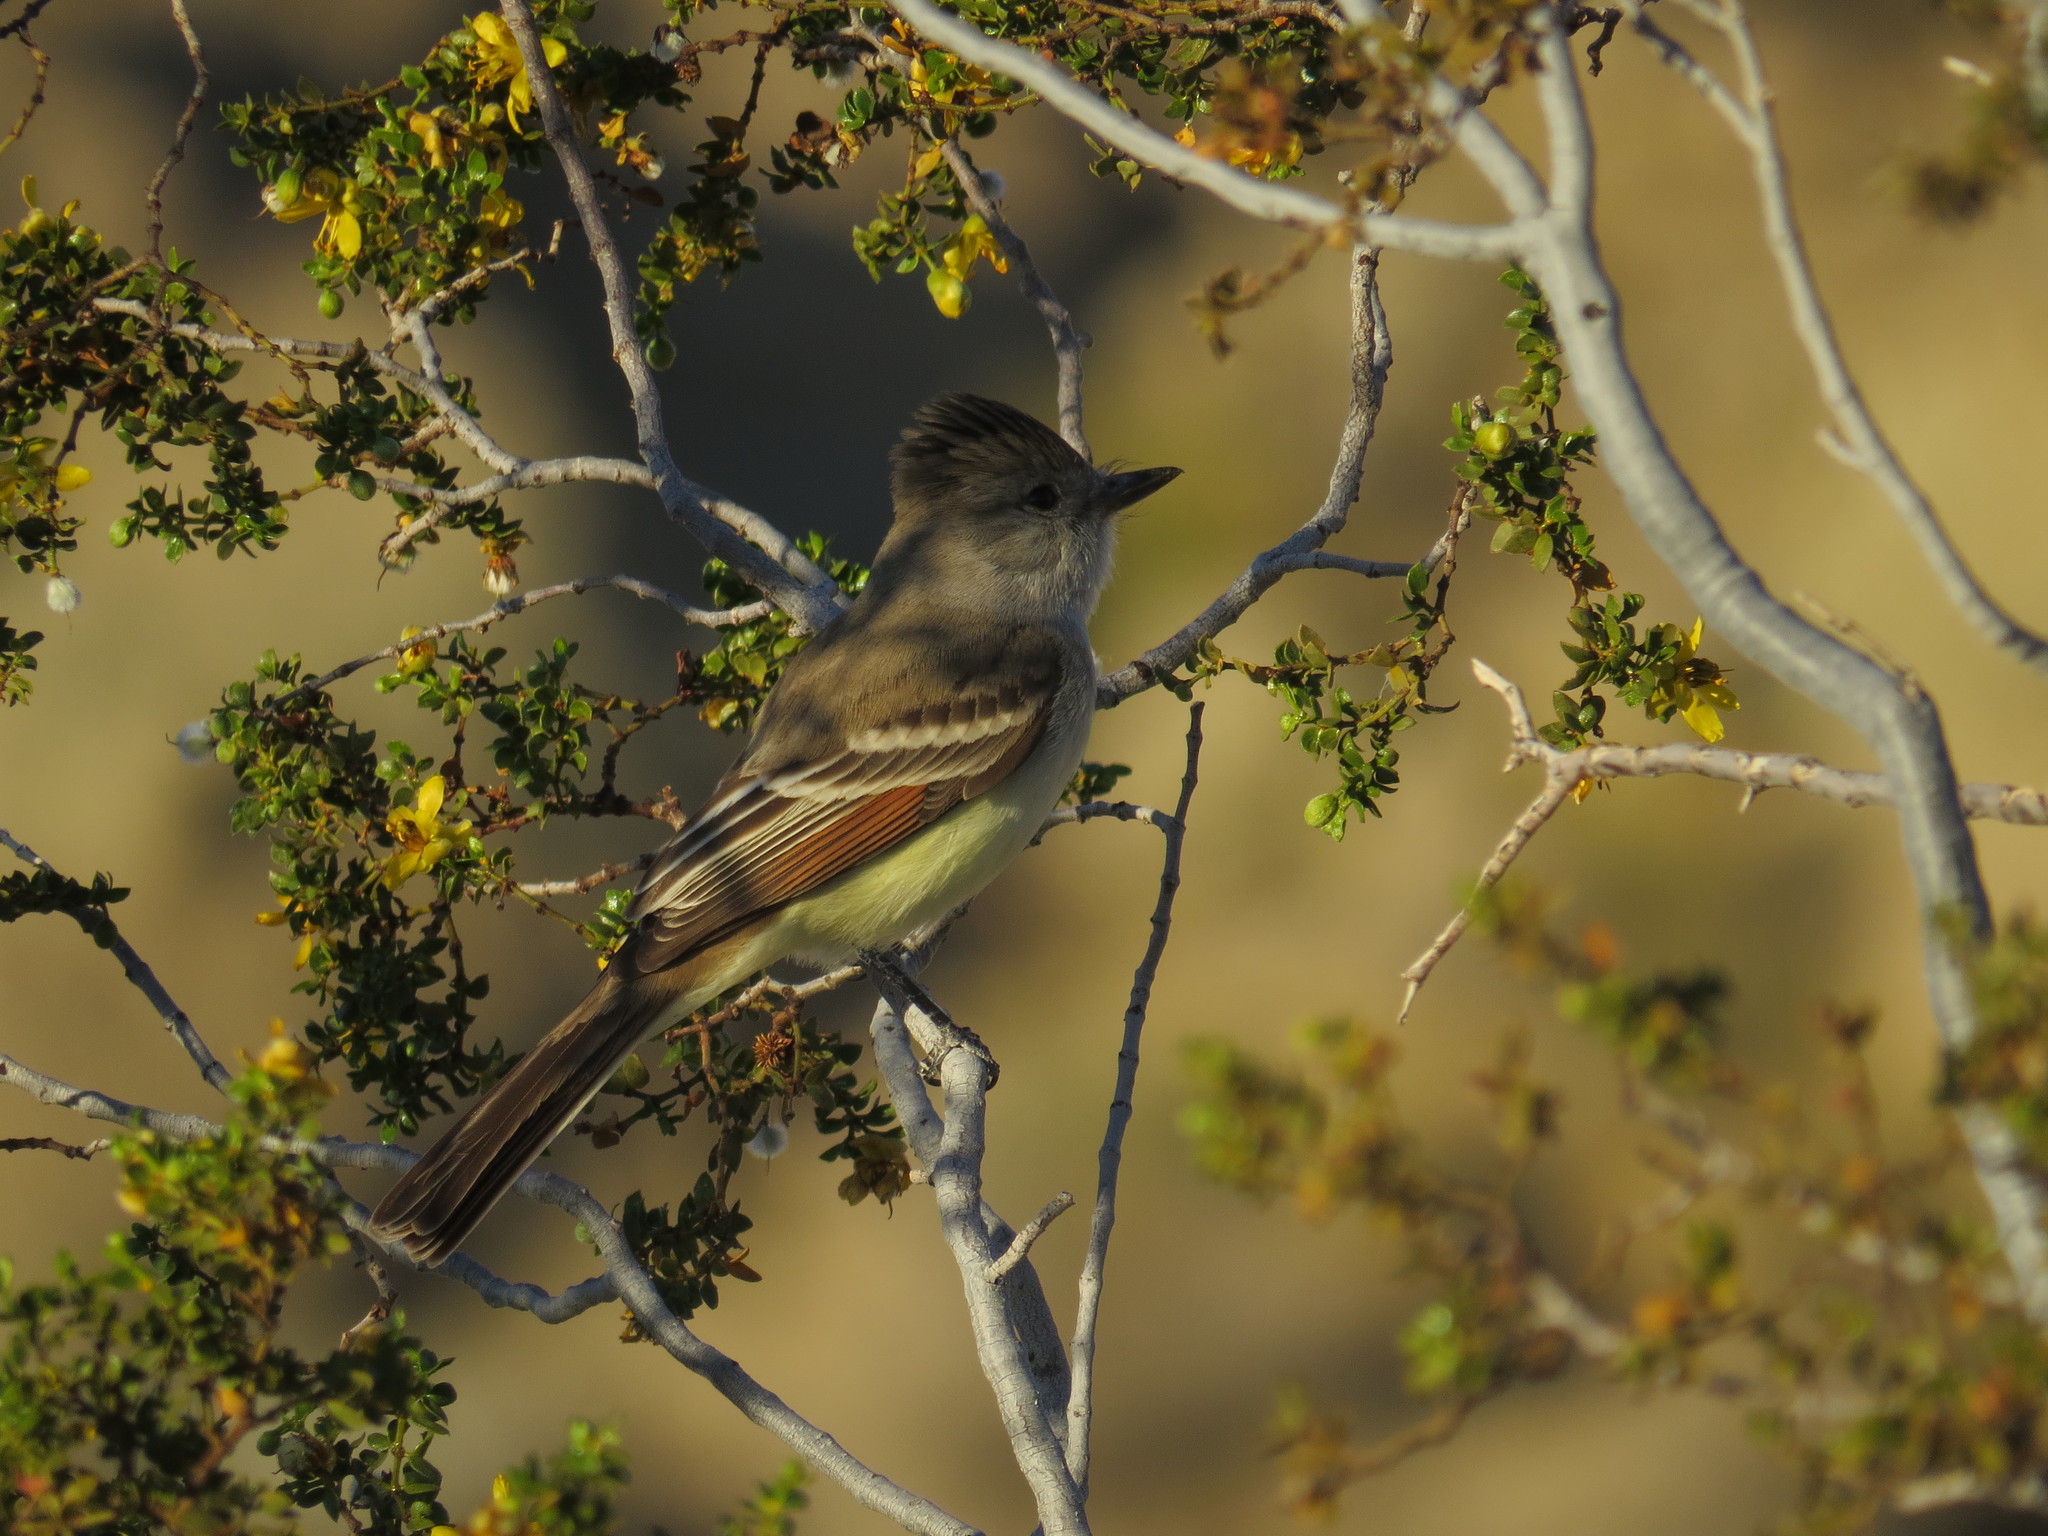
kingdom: Animalia
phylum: Chordata
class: Aves
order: Passeriformes
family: Tyrannidae
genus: Myiarchus
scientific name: Myiarchus cinerascens
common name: Ash-throated flycatcher
